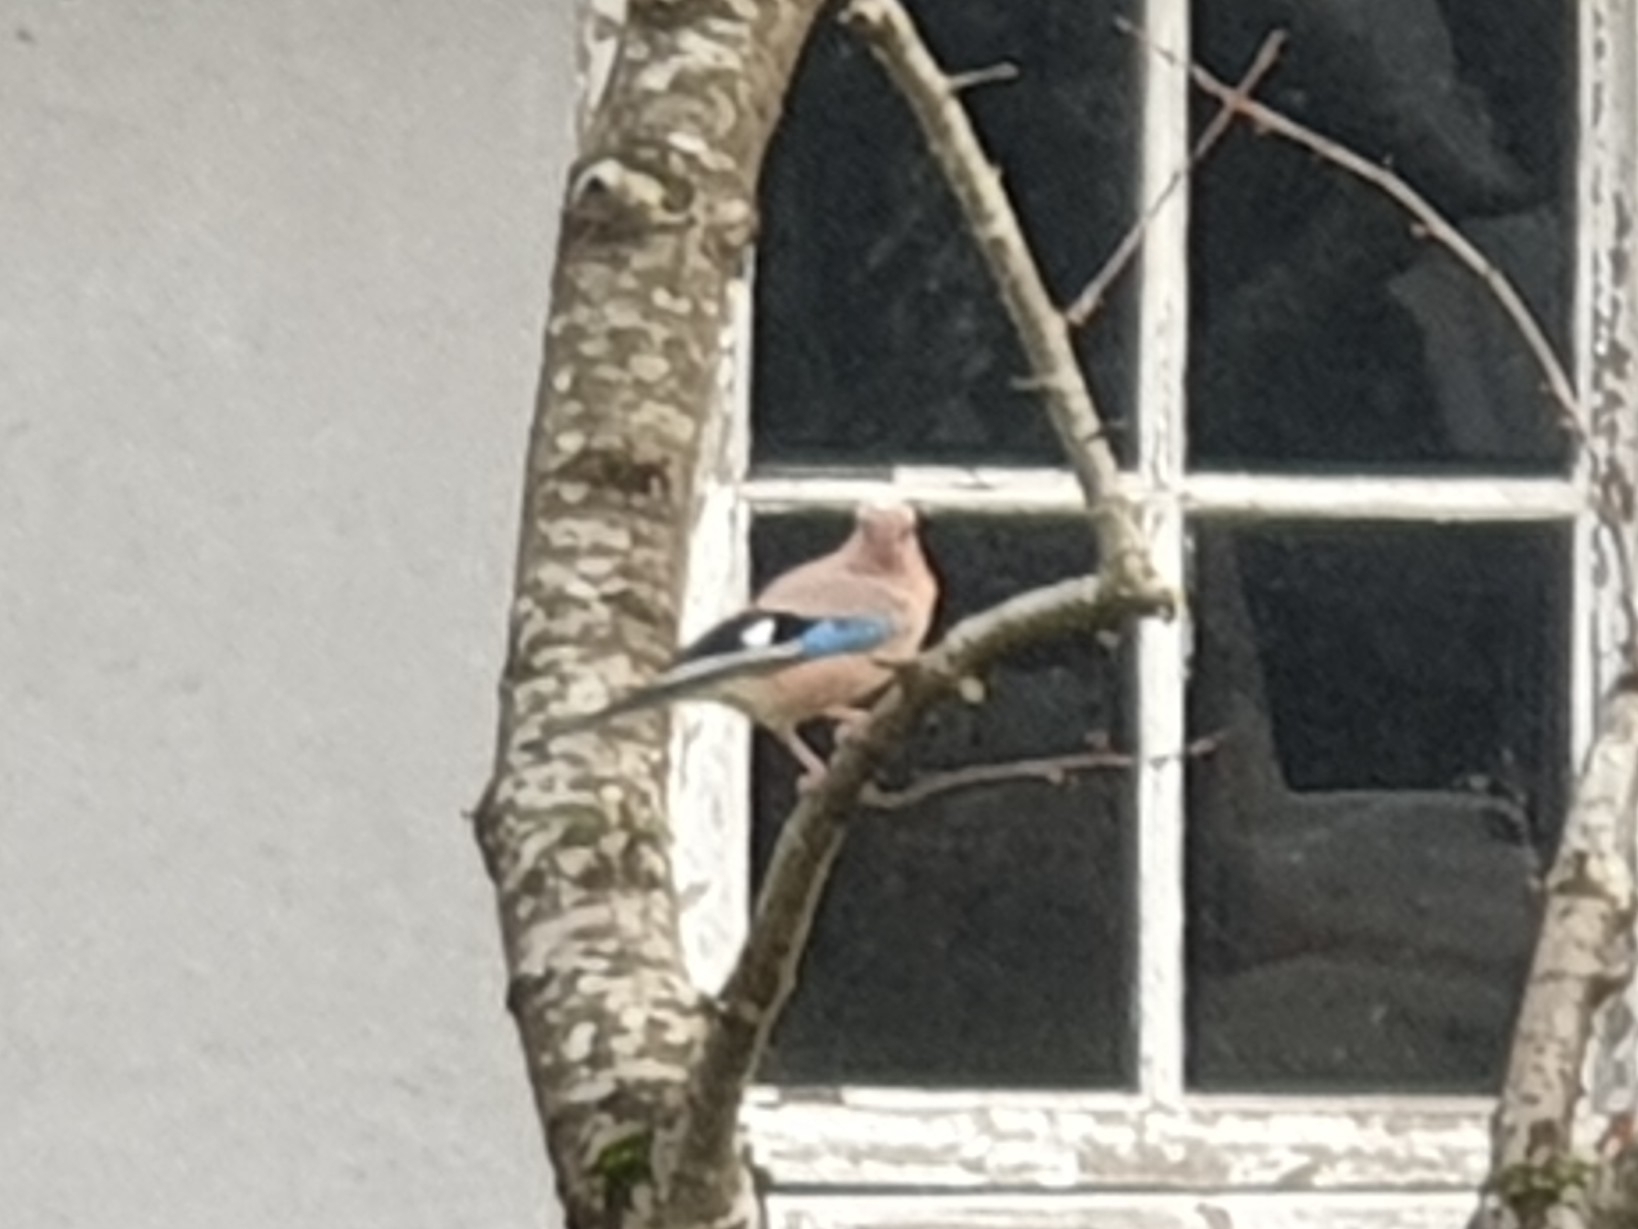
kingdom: Animalia
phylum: Chordata
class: Aves
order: Passeriformes
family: Corvidae
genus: Garrulus
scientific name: Garrulus glandarius
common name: Eurasian jay
